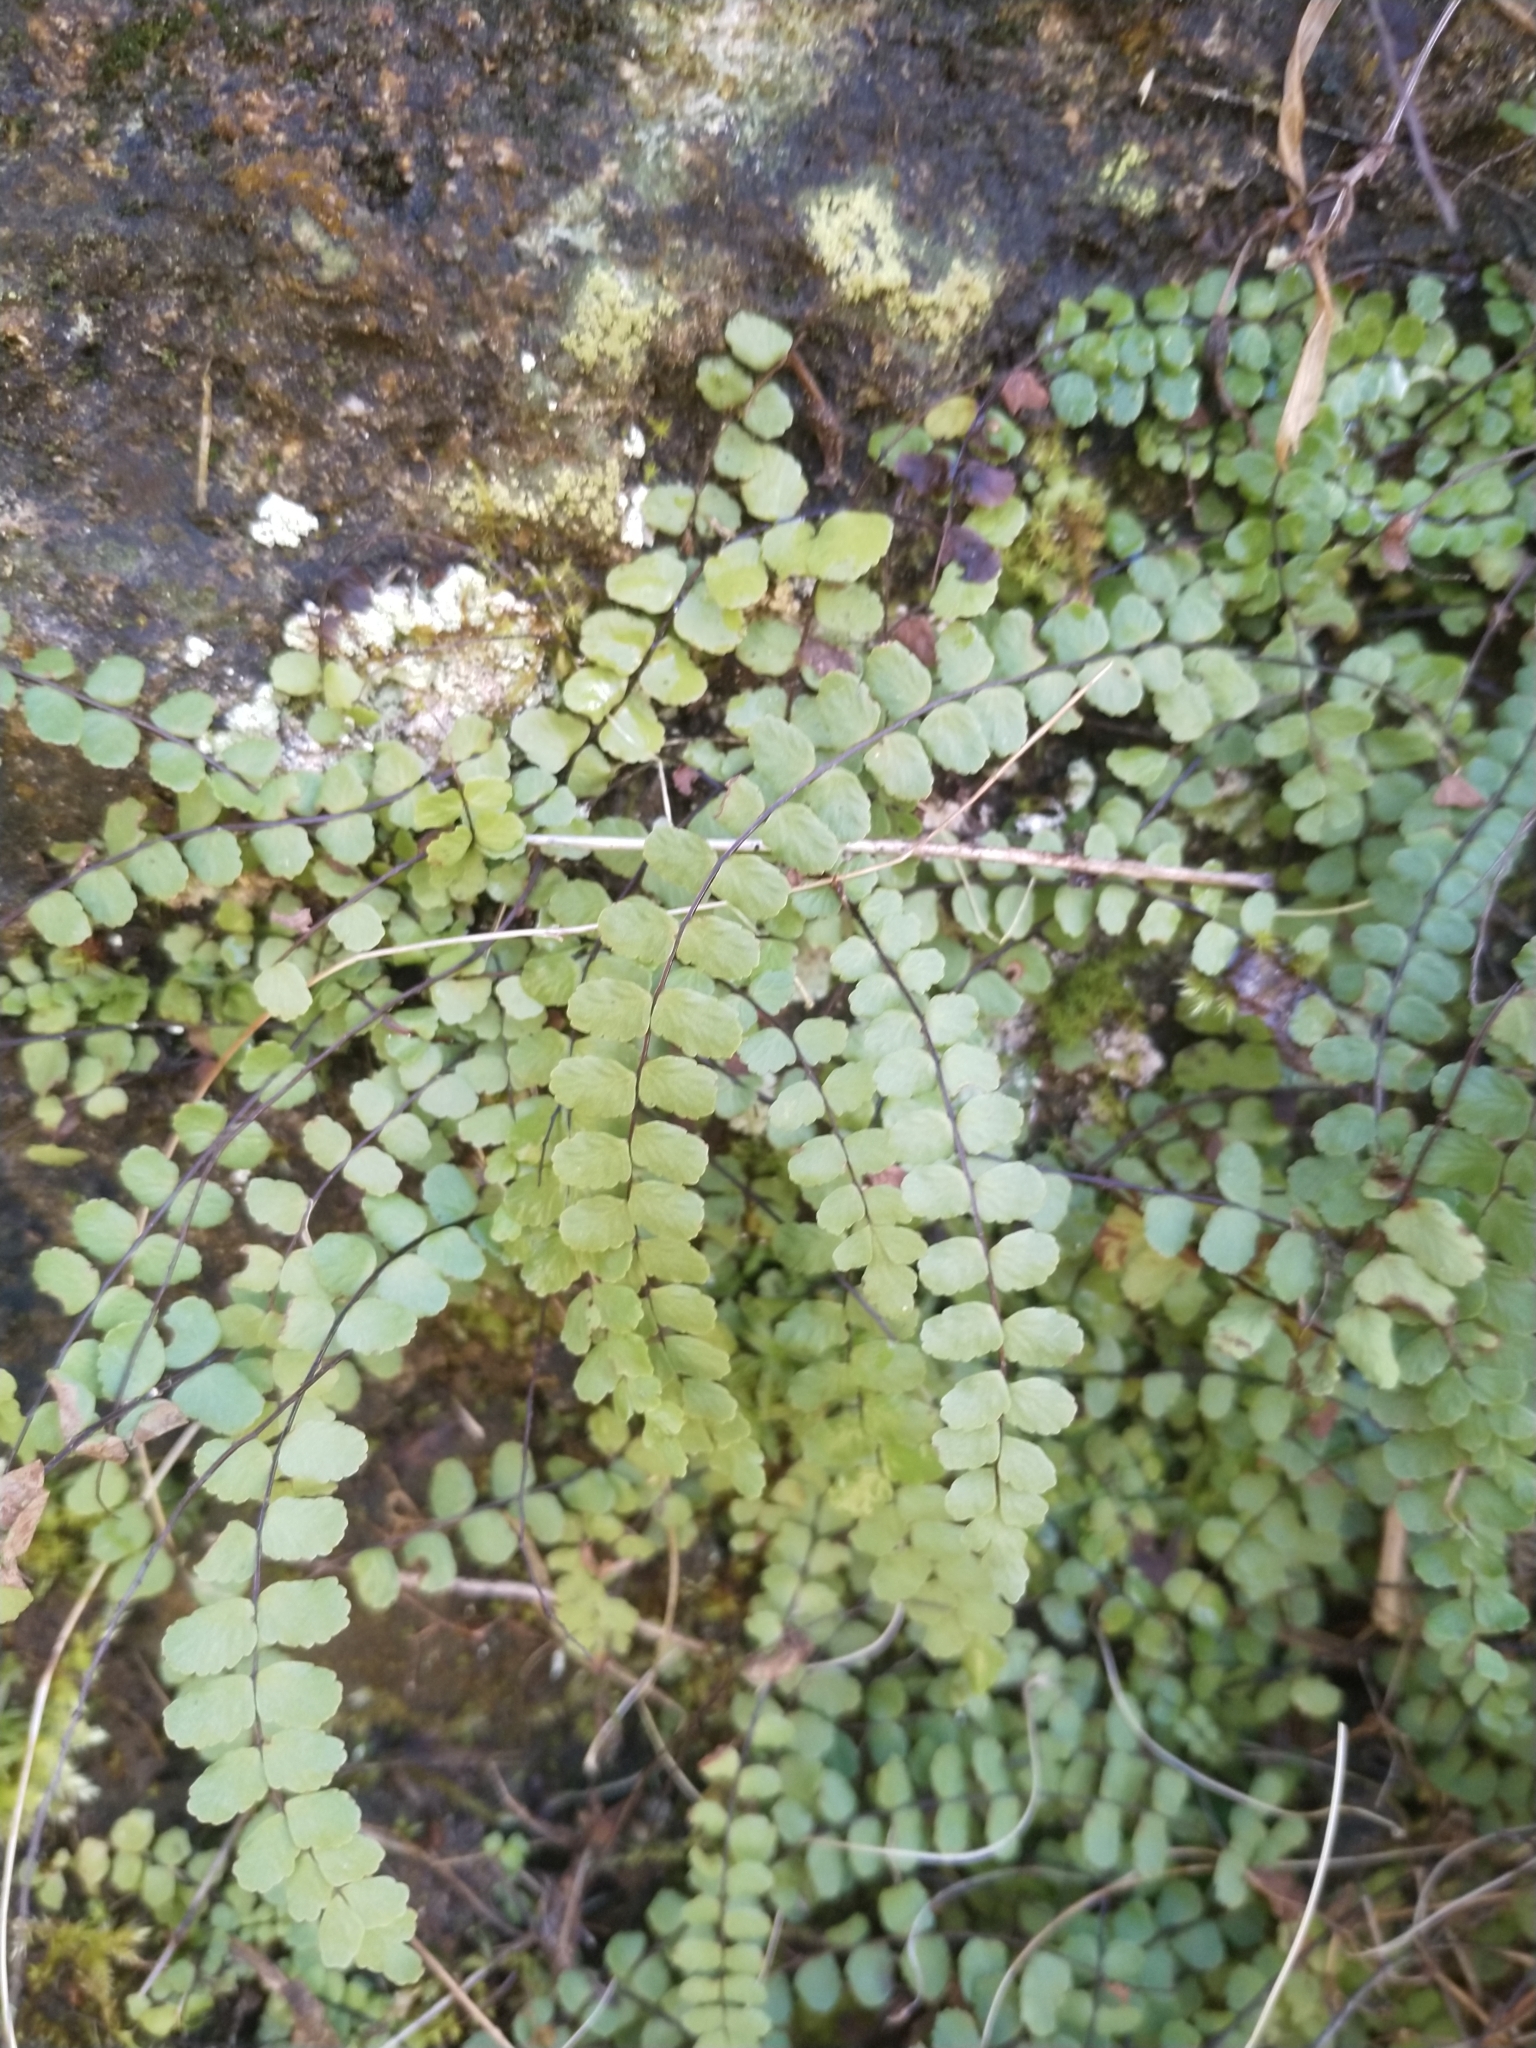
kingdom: Plantae
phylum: Tracheophyta
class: Polypodiopsida
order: Polypodiales
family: Aspleniaceae
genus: Asplenium
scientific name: Asplenium trichomanes
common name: Maidenhair spleenwort
